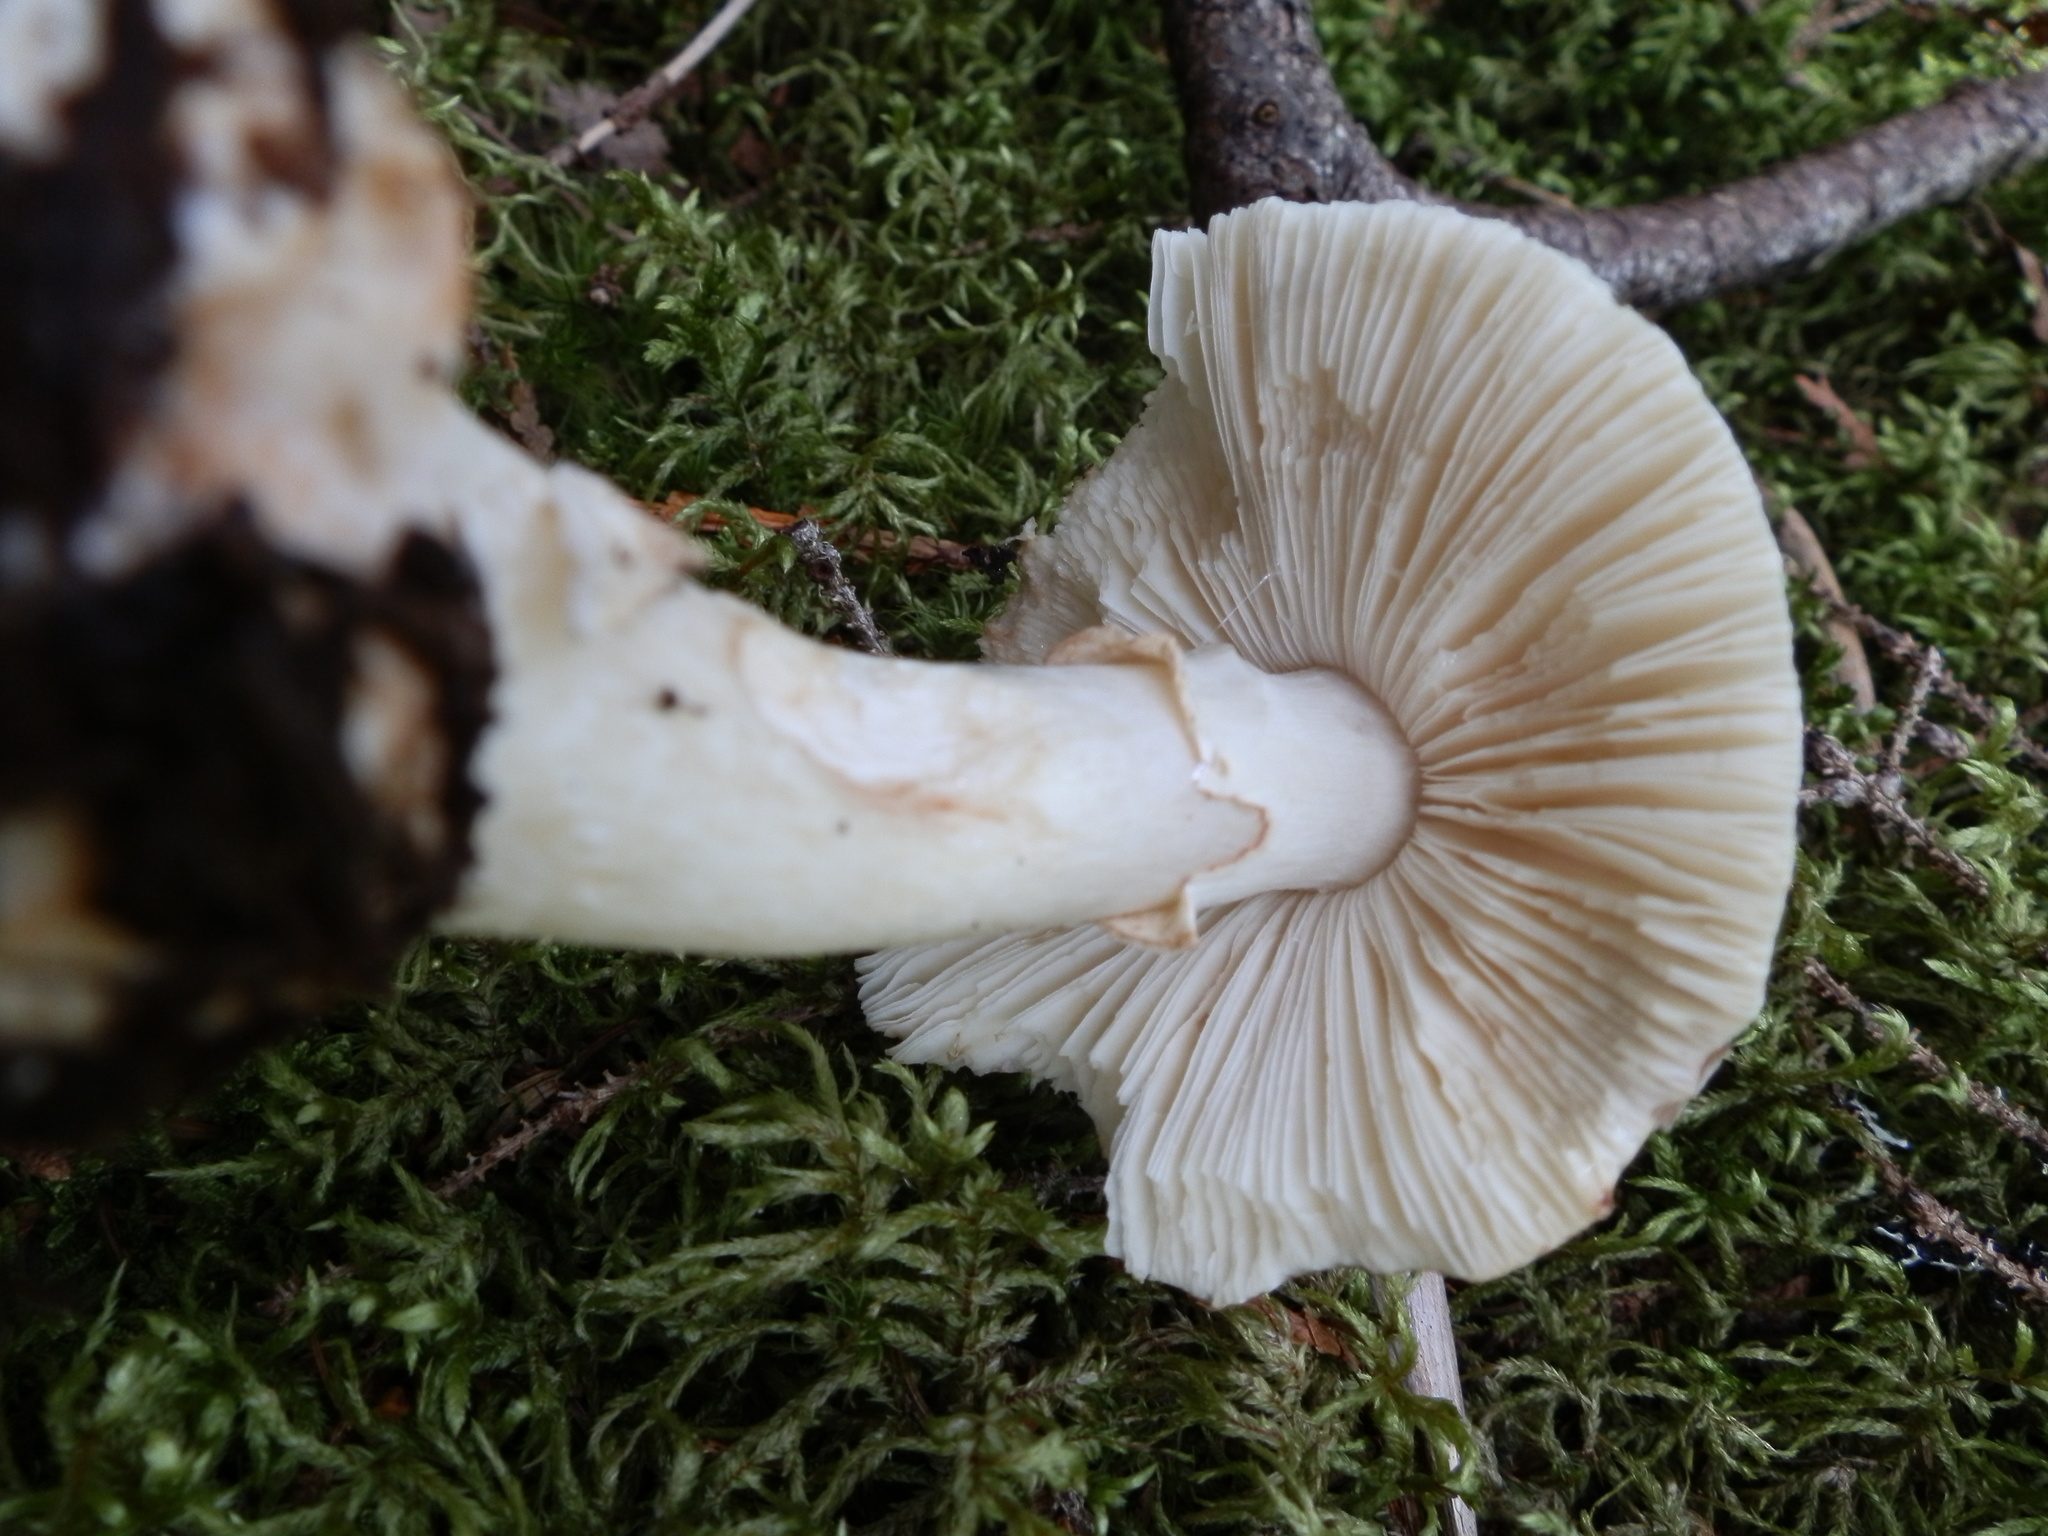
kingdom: Fungi
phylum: Basidiomycota
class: Agaricomycetes
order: Agaricales
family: Amanitaceae
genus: Amanita
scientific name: Amanita brunnescens
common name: Brown american star-footed amanita
